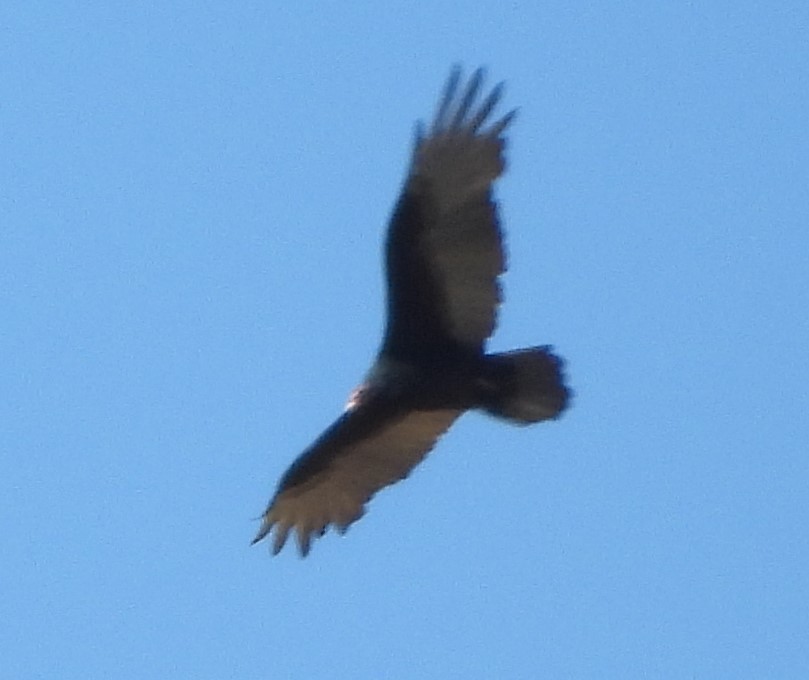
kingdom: Animalia
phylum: Chordata
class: Aves
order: Accipitriformes
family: Cathartidae
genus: Cathartes
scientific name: Cathartes aura
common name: Turkey vulture
